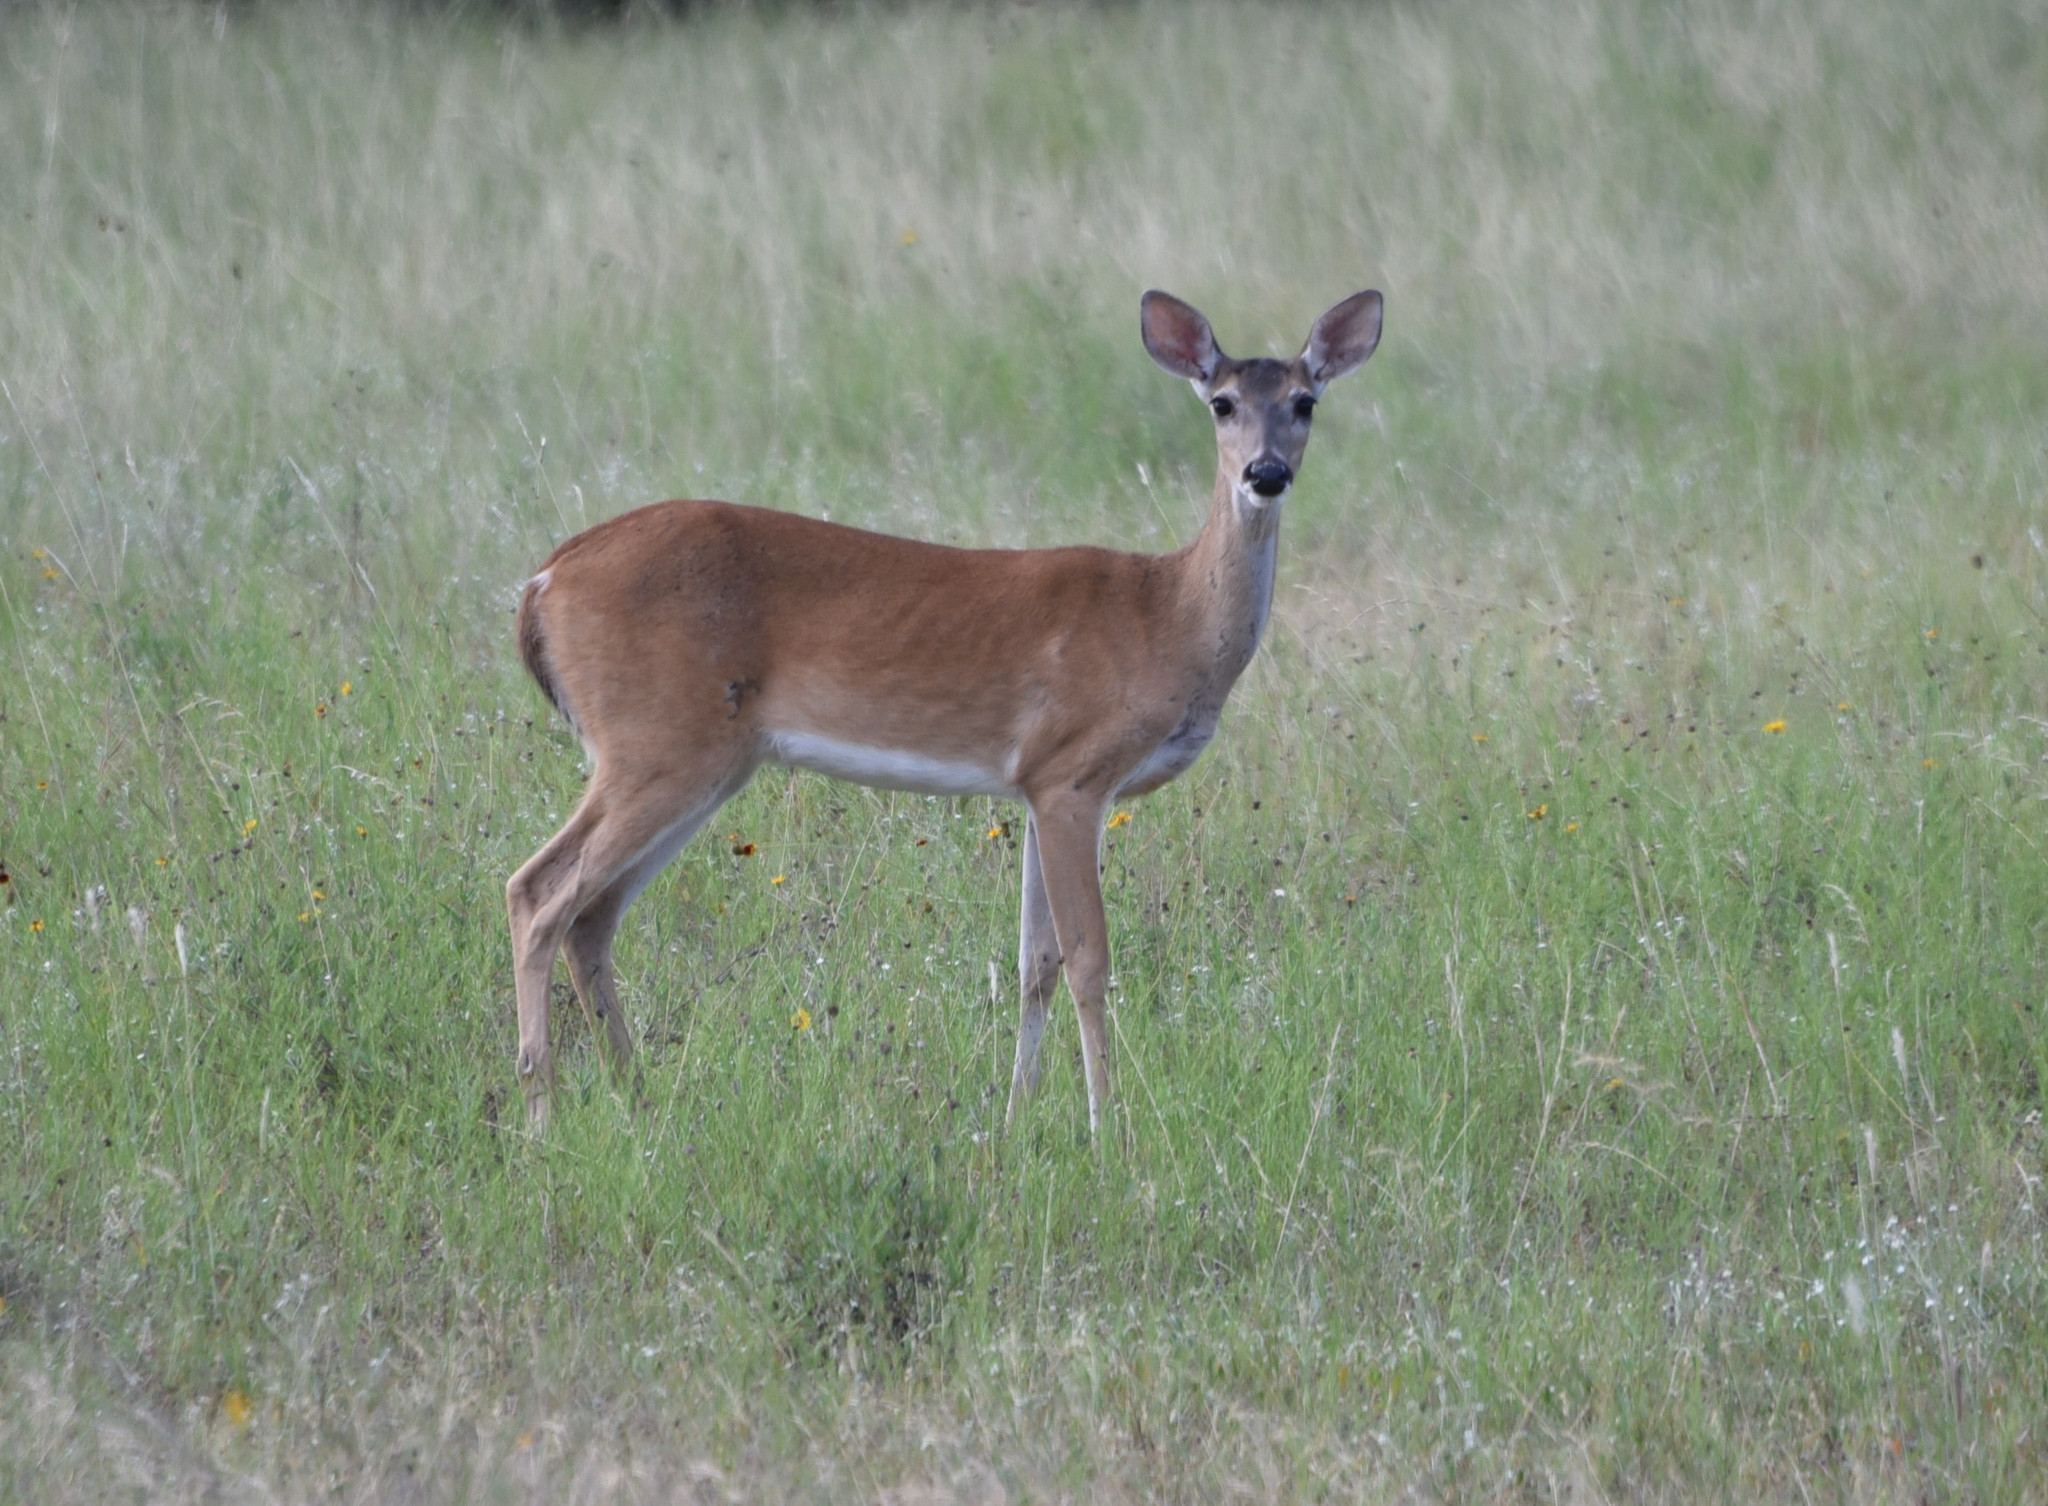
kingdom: Animalia
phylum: Chordata
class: Mammalia
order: Artiodactyla
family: Cervidae
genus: Odocoileus
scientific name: Odocoileus virginianus
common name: White-tailed deer
